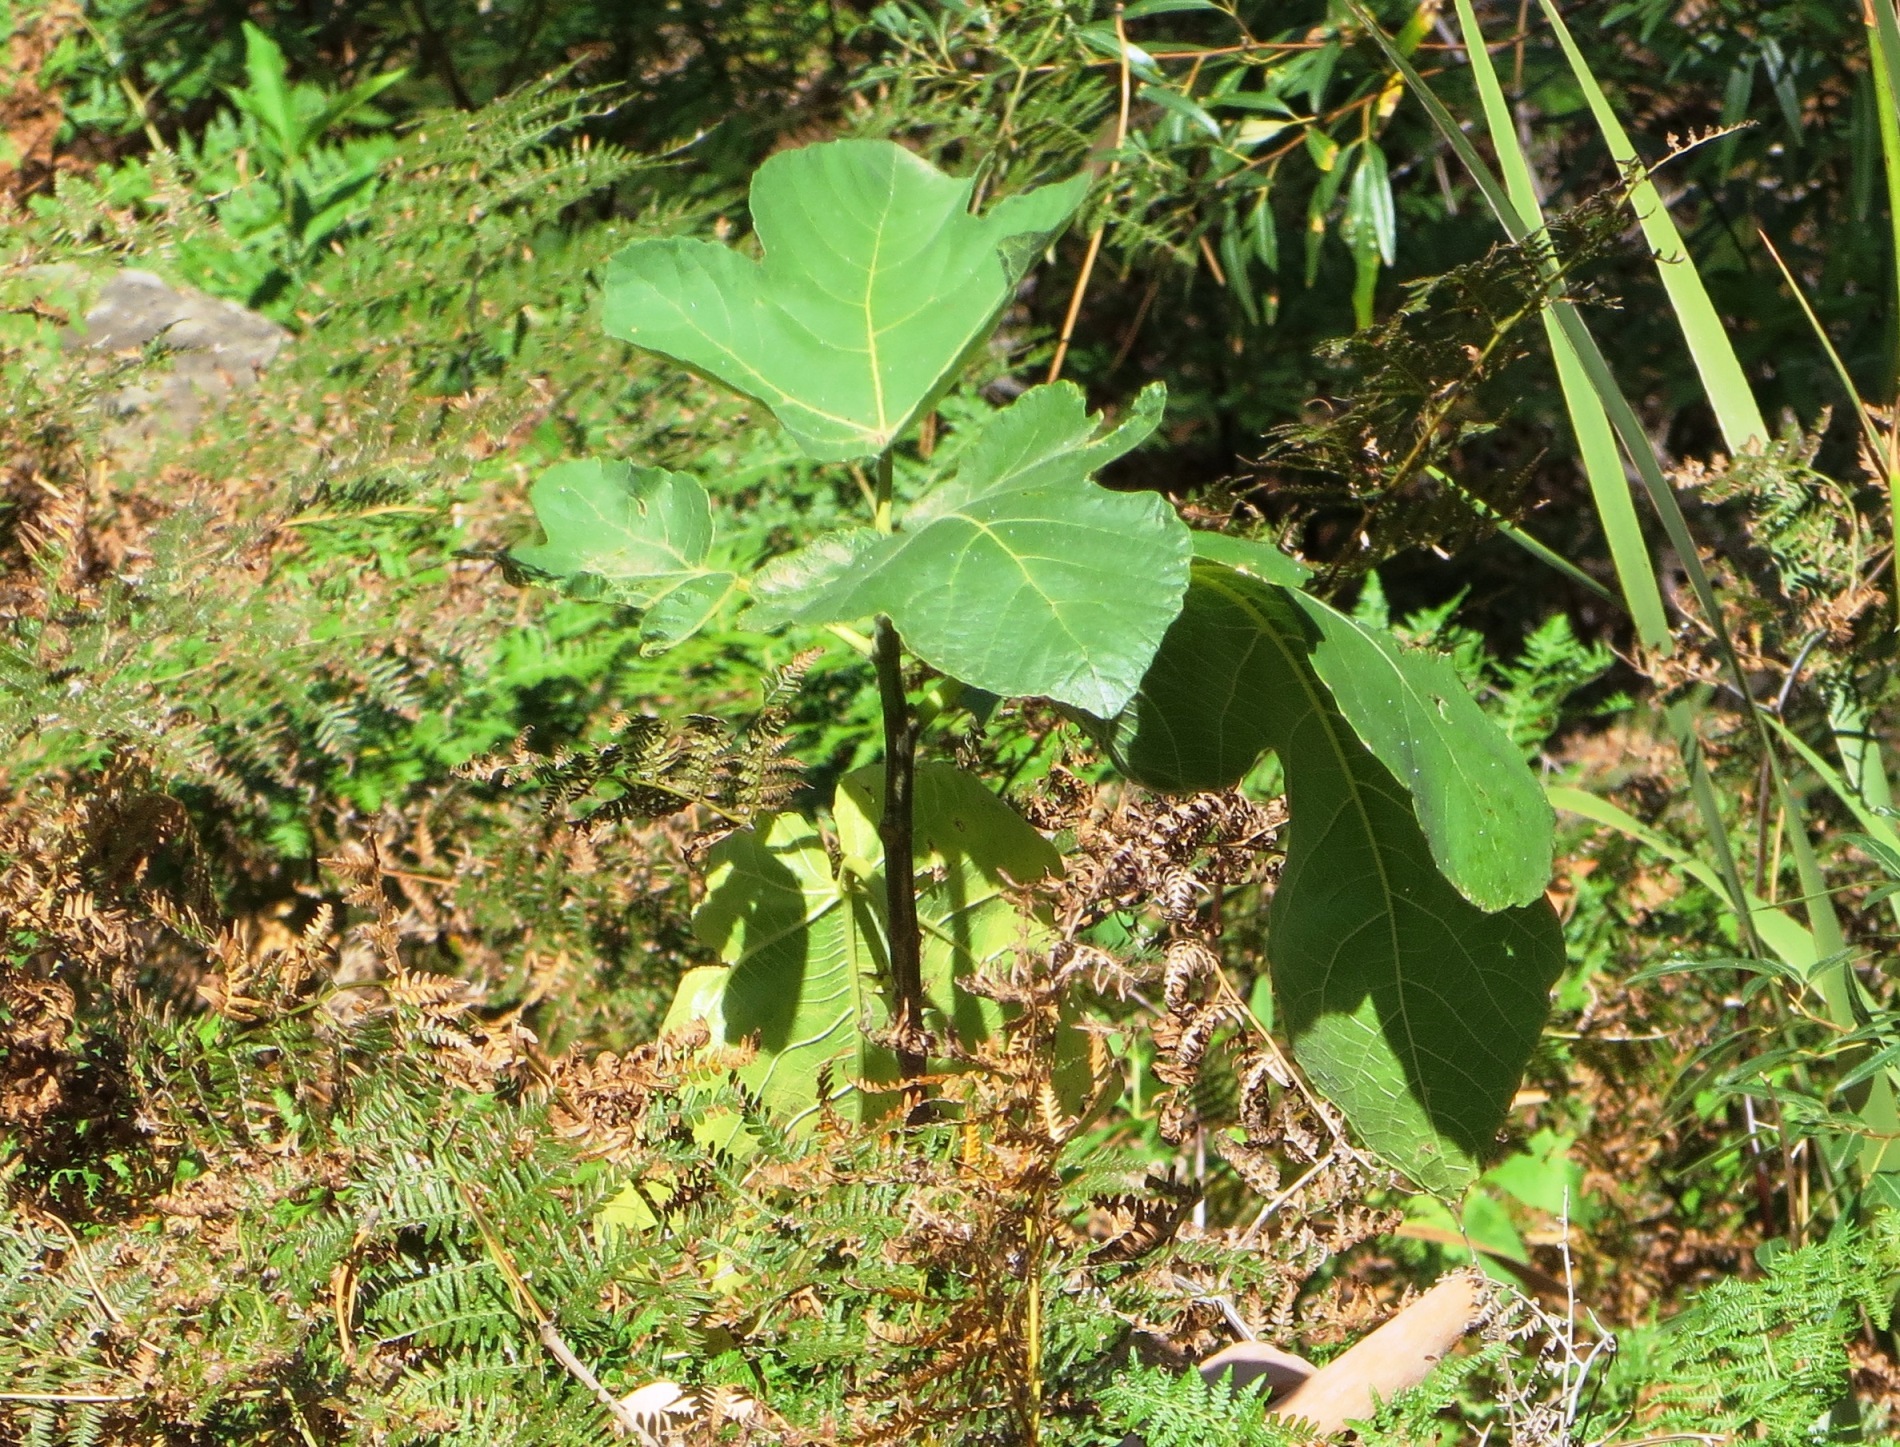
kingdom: Plantae
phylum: Tracheophyta
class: Magnoliopsida
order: Rosales
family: Moraceae
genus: Ficus
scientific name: Ficus carica
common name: Fig
